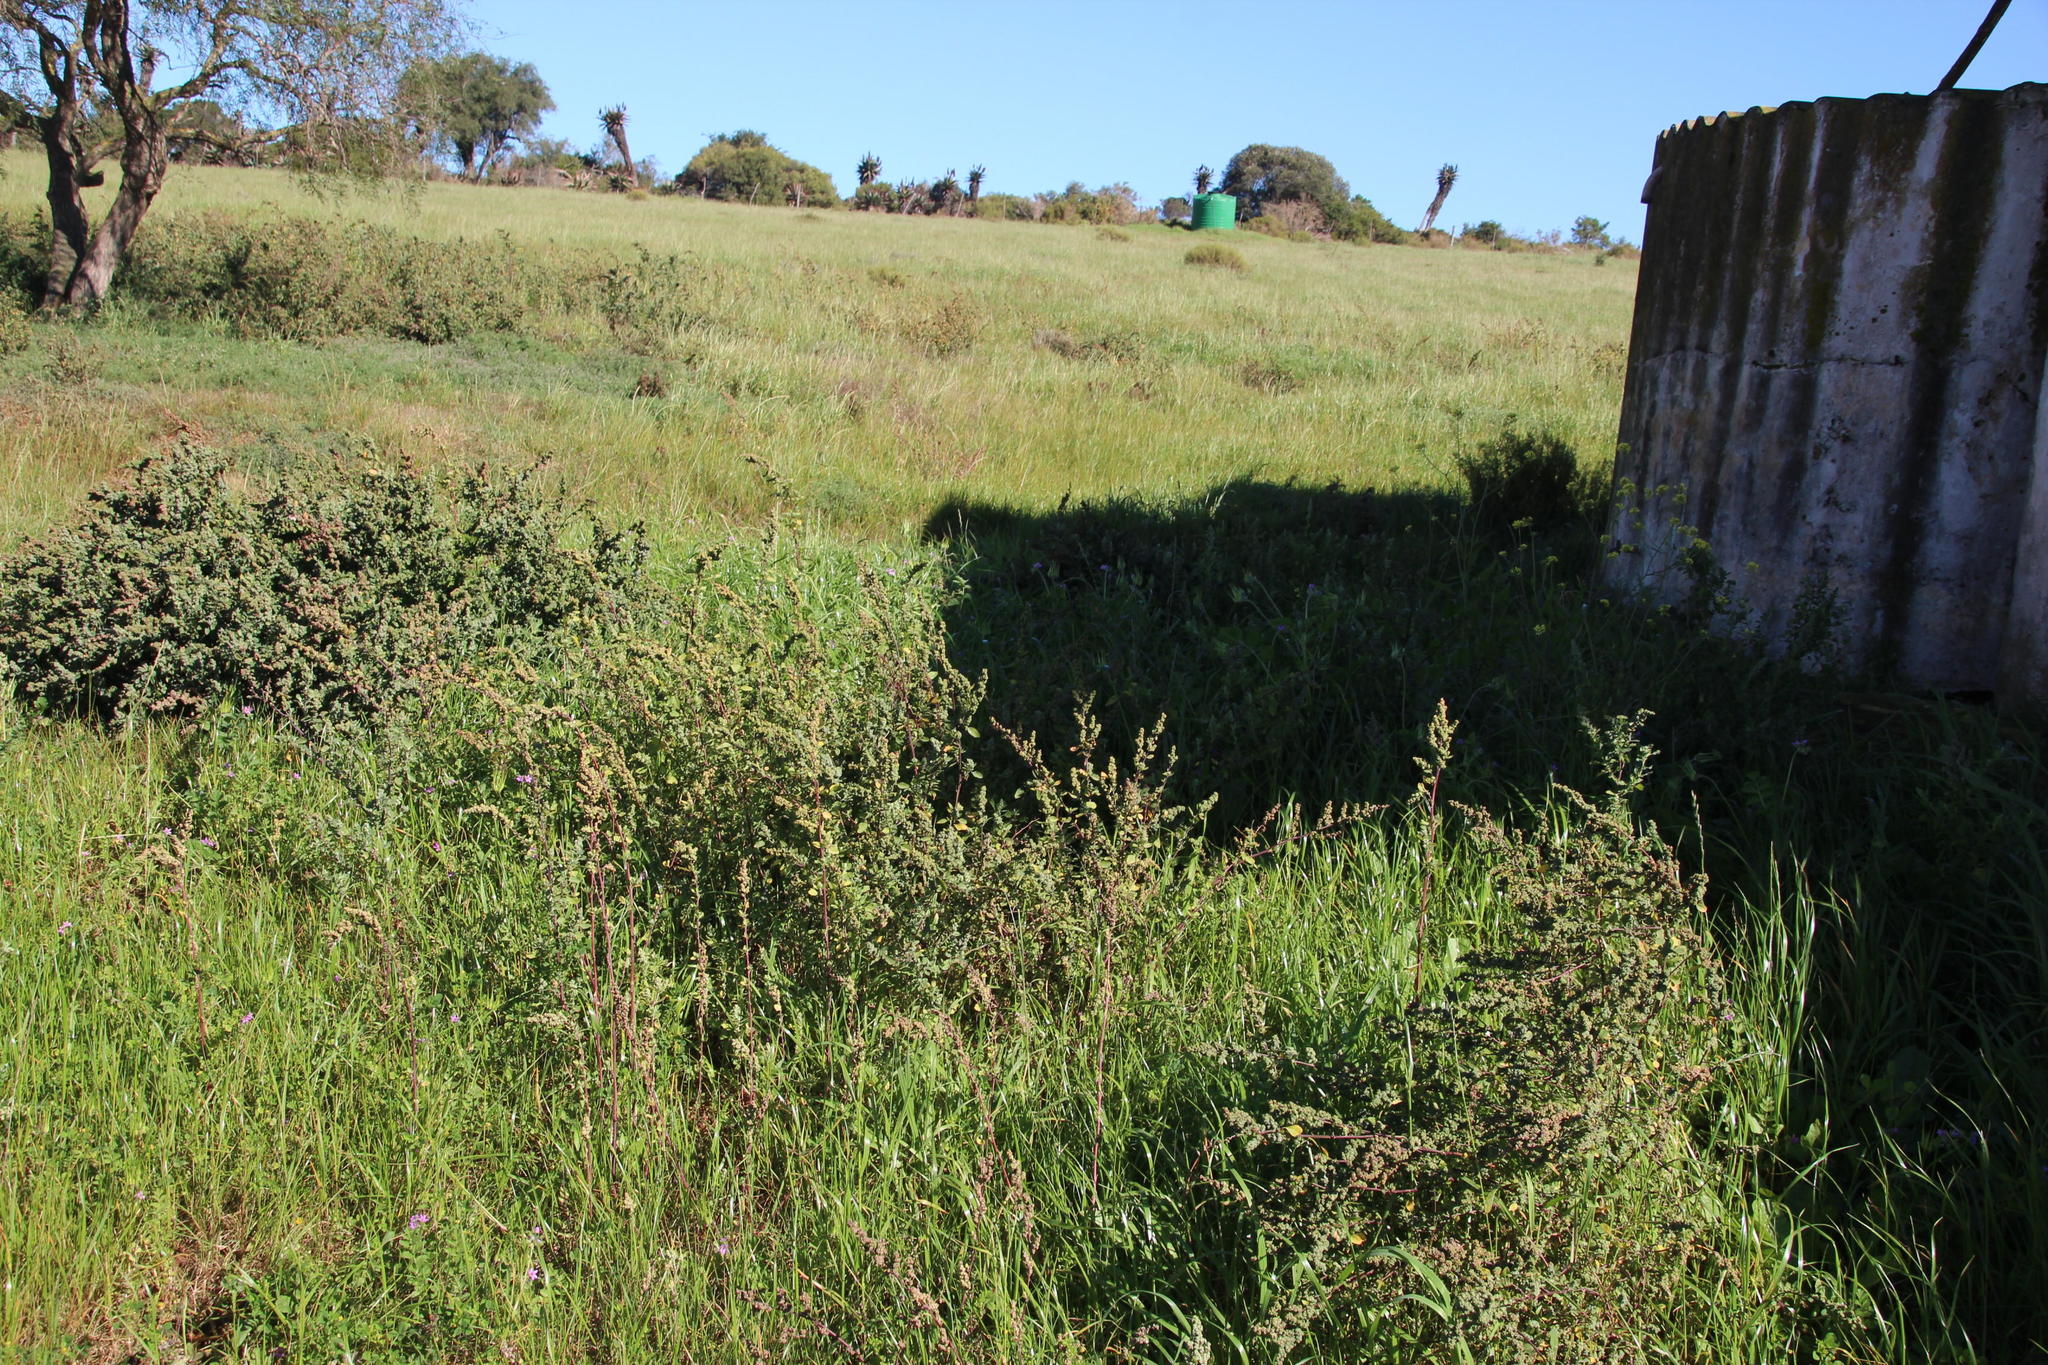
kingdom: Plantae
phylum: Tracheophyta
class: Magnoliopsida
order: Caryophyllales
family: Amaranthaceae
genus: Chenopodium
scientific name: Chenopodium mucronatum
